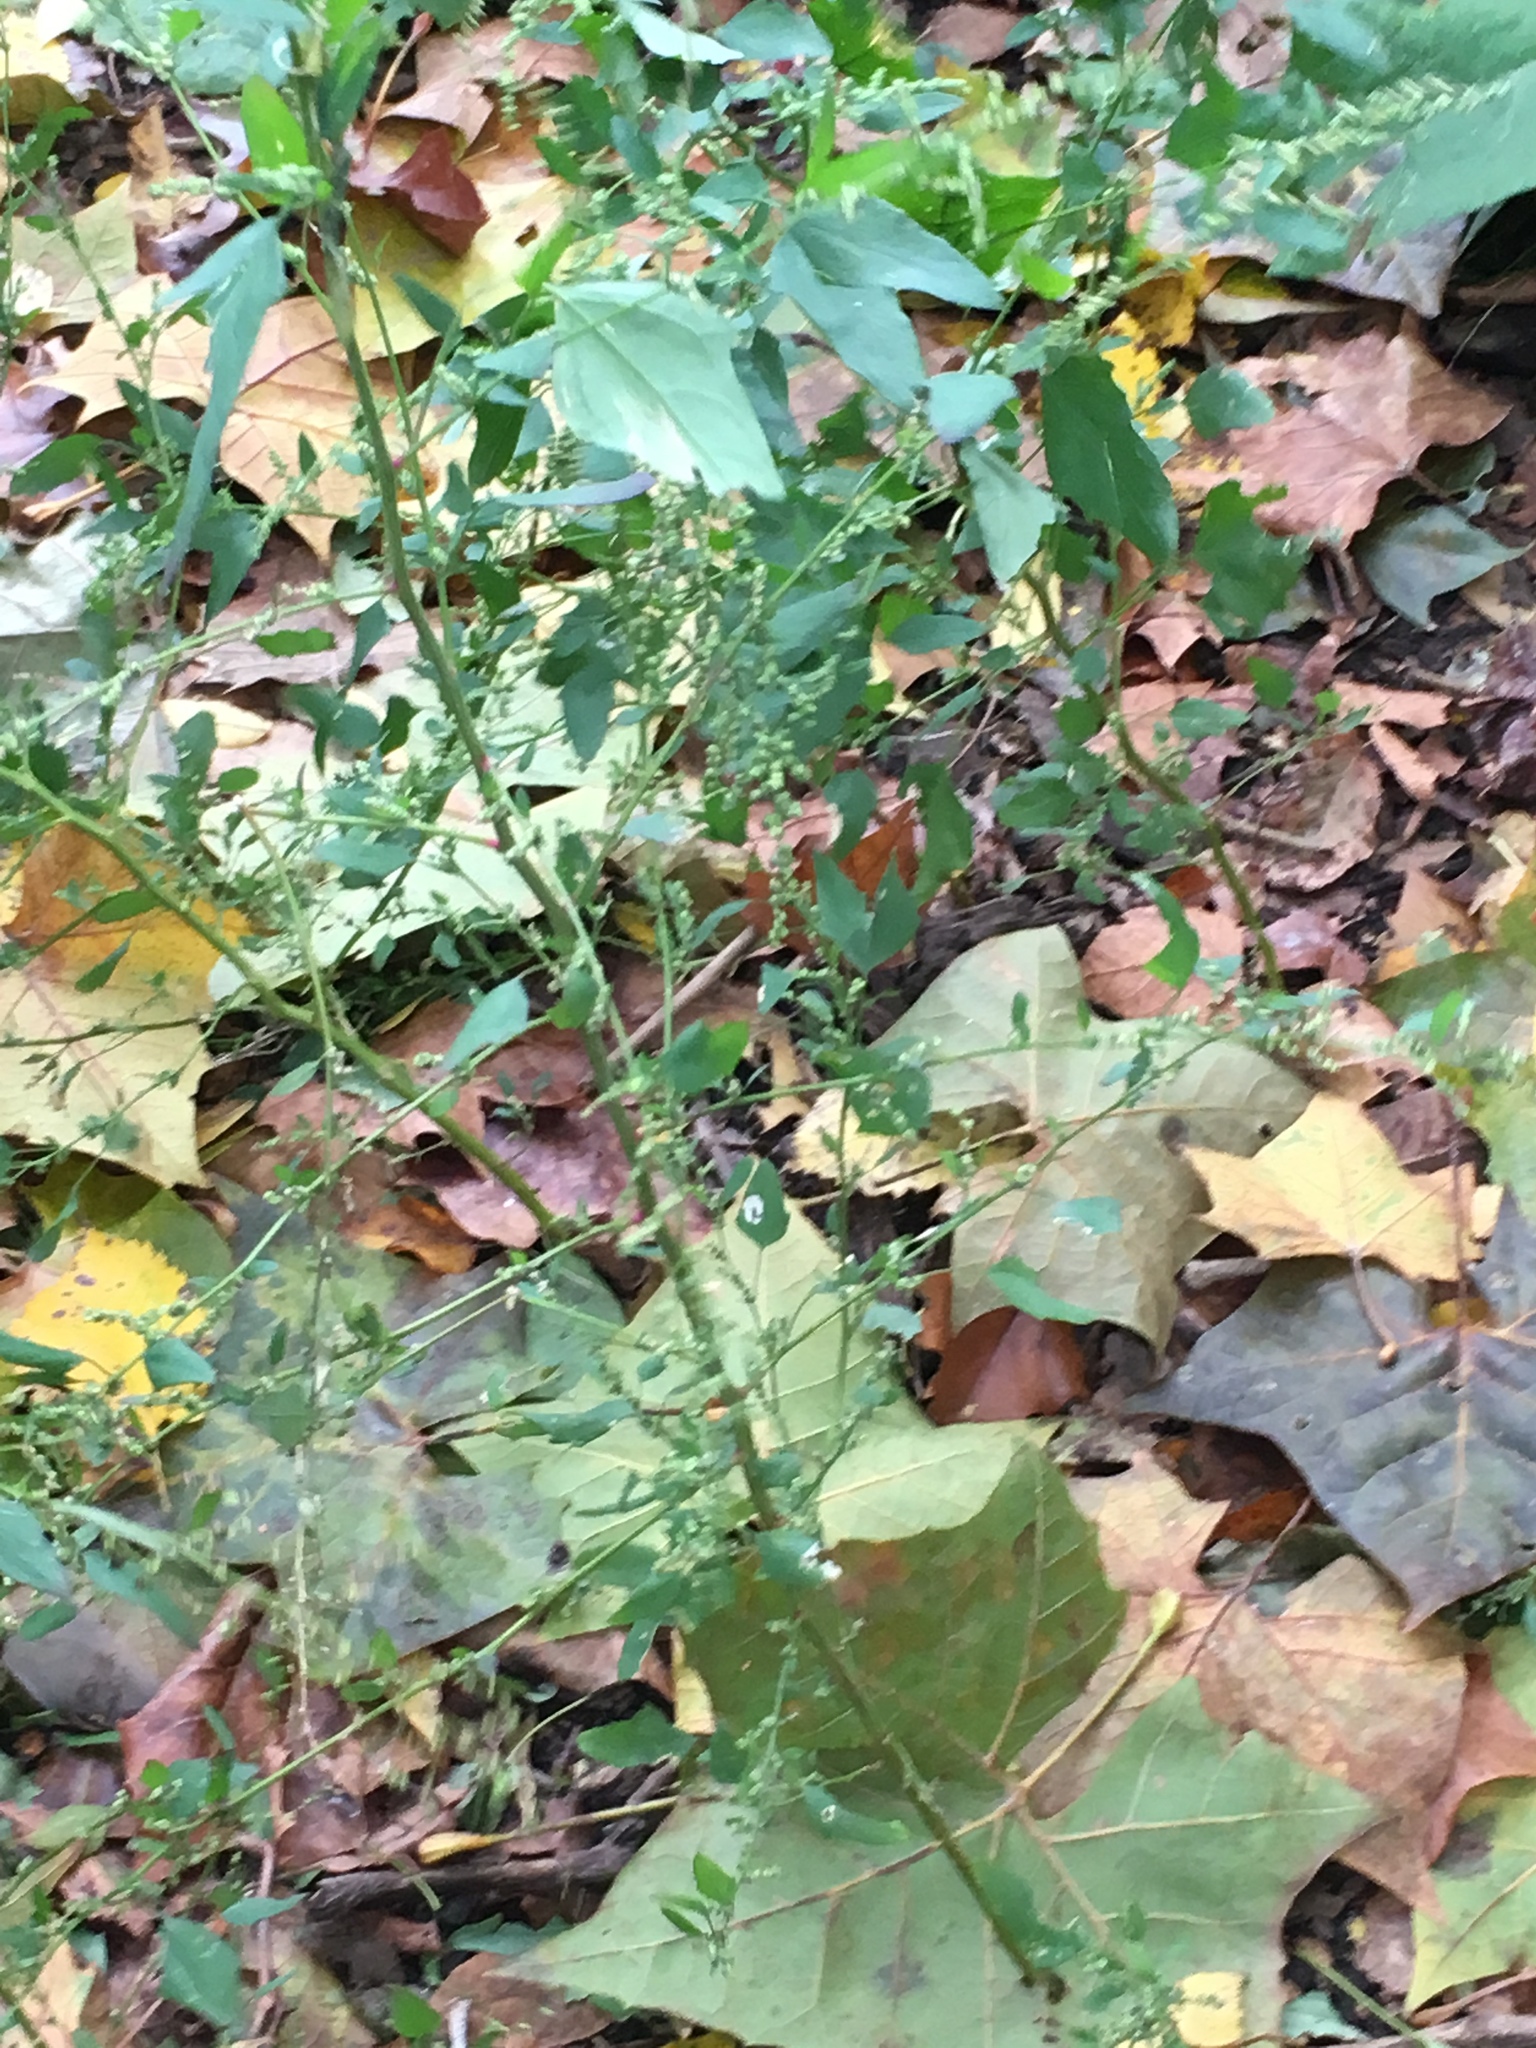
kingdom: Plantae
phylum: Tracheophyta
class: Magnoliopsida
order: Caryophyllales
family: Amaranthaceae
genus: Chenopodium
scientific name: Chenopodium album
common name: Fat-hen
